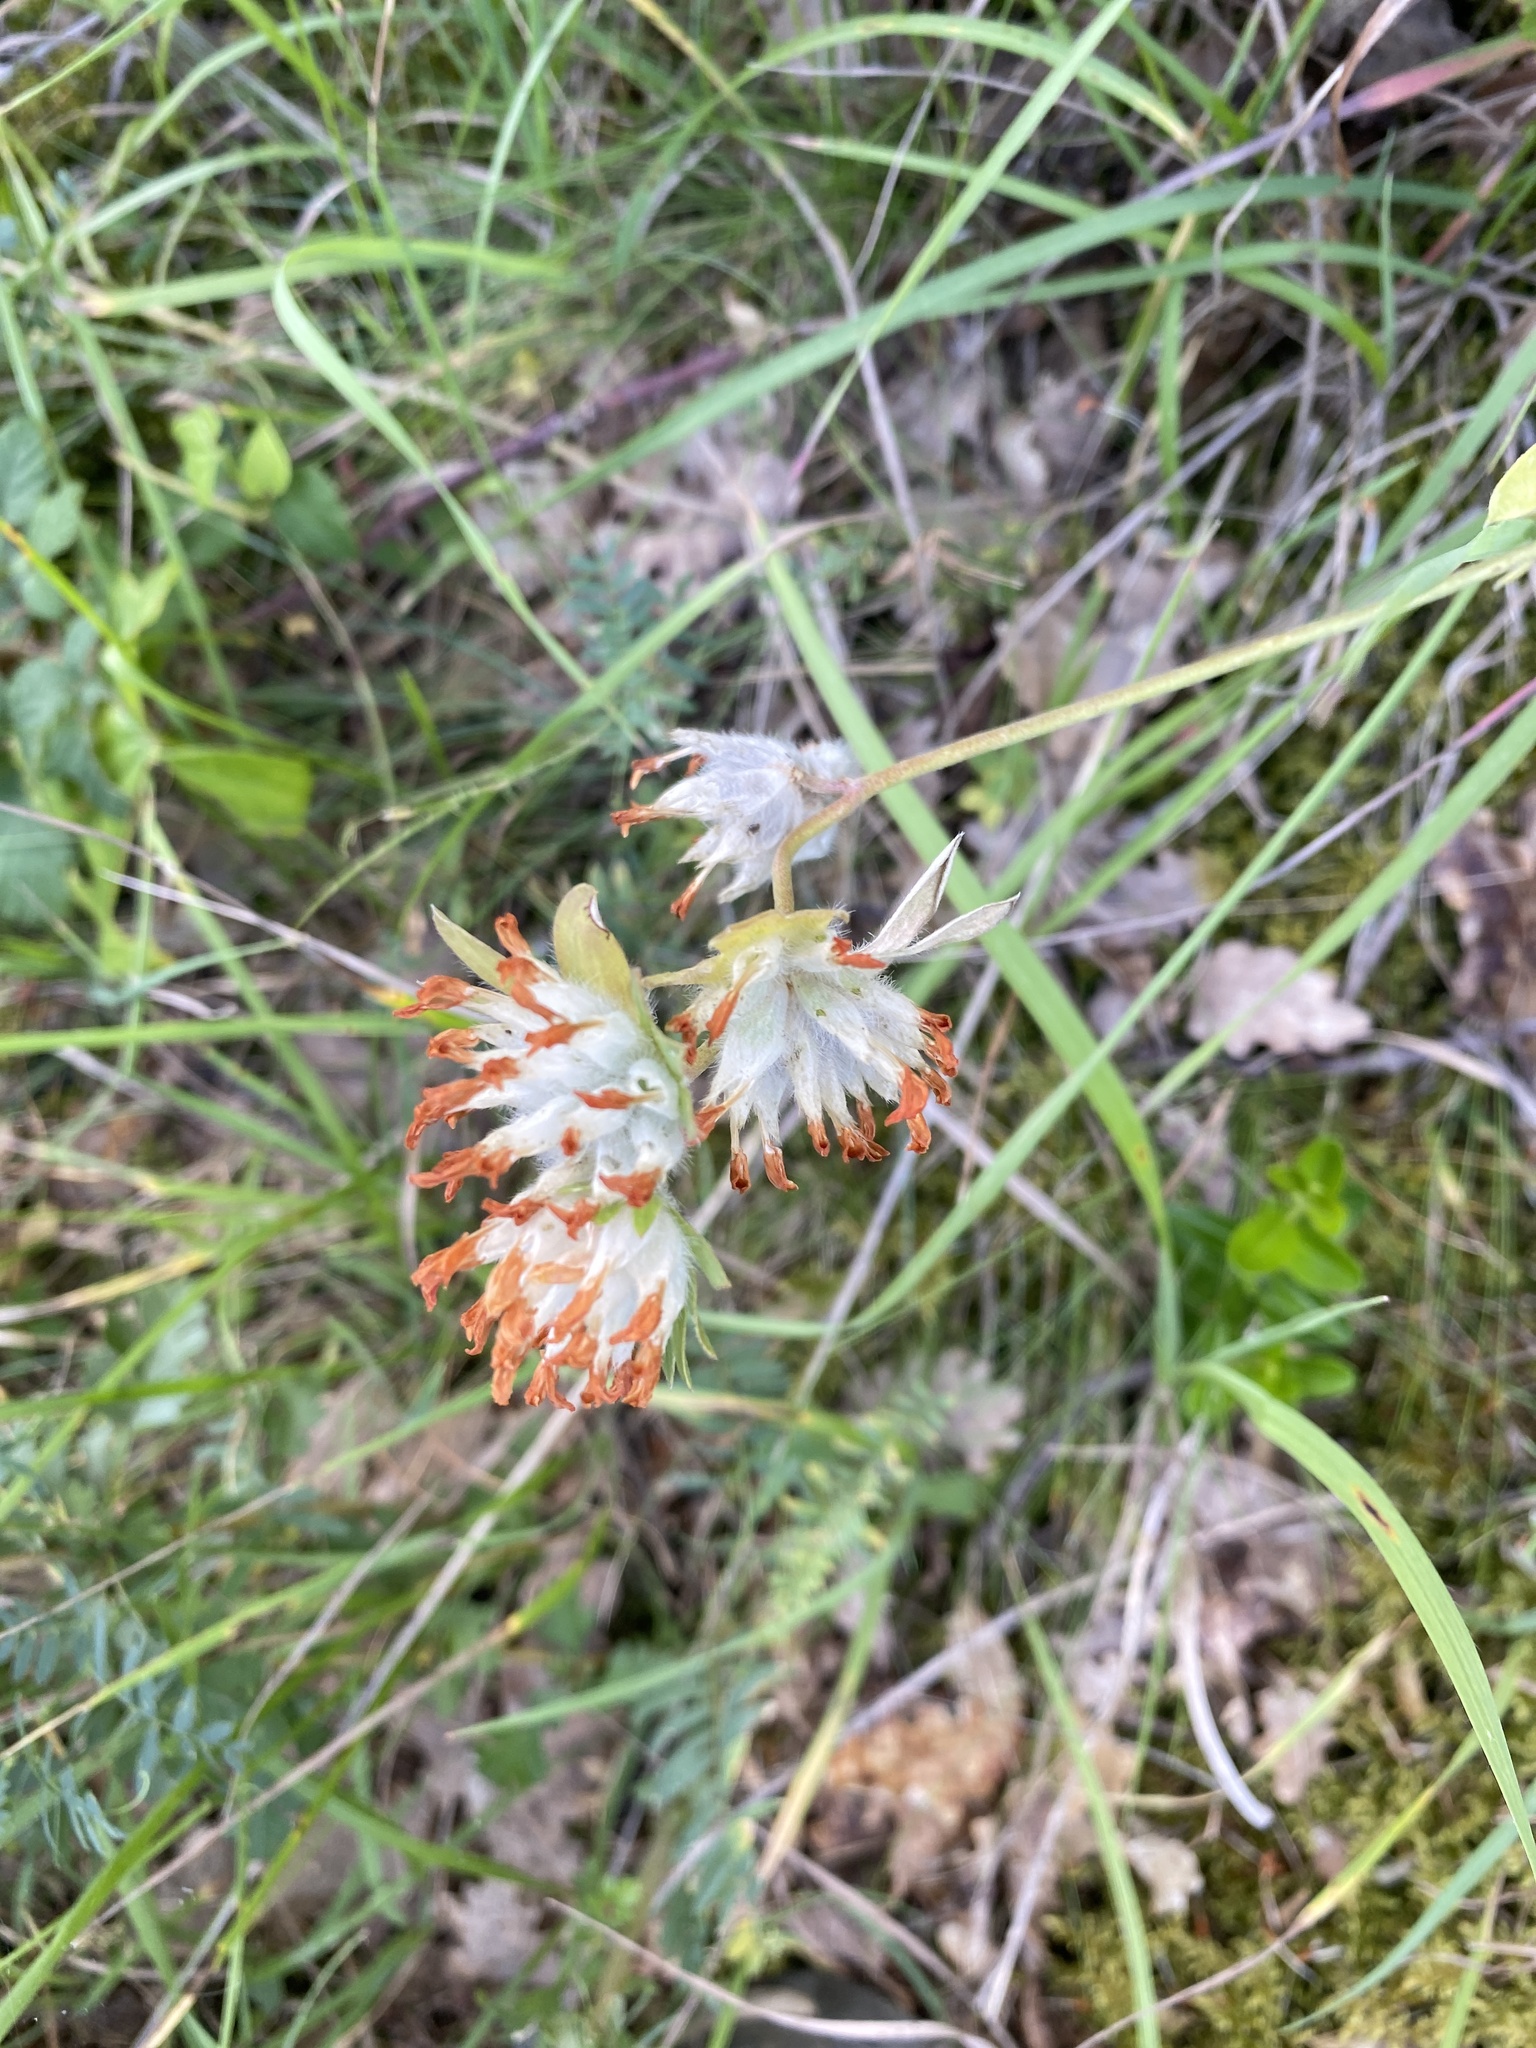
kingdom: Plantae
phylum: Tracheophyta
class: Magnoliopsida
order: Fabales
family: Fabaceae
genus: Anthyllis
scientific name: Anthyllis vulneraria
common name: Kidney vetch
